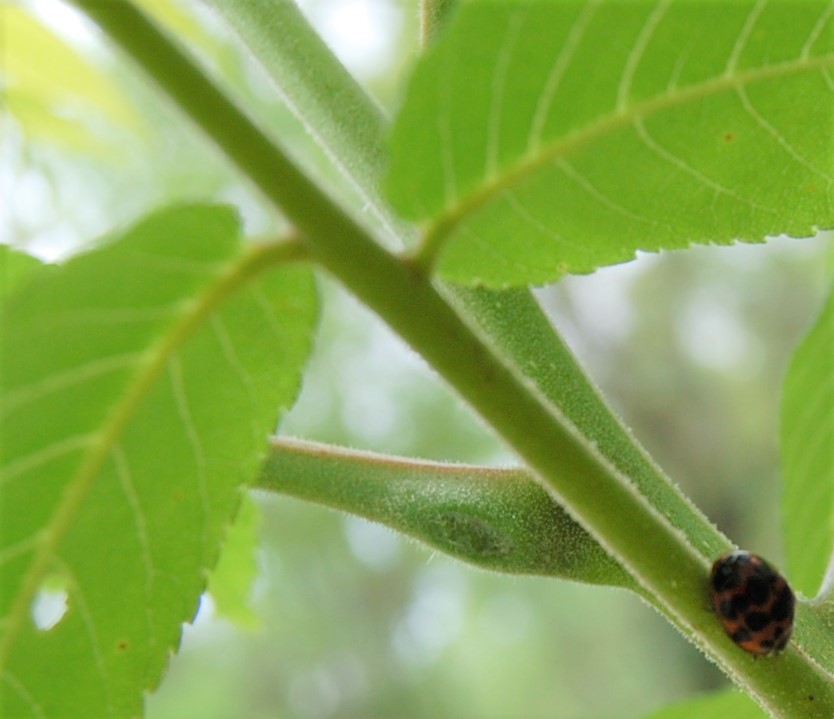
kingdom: Animalia
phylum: Arthropoda
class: Insecta
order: Coleoptera
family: Coccinellidae
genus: Harmonia
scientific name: Harmonia axyridis
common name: Harlequin ladybird
